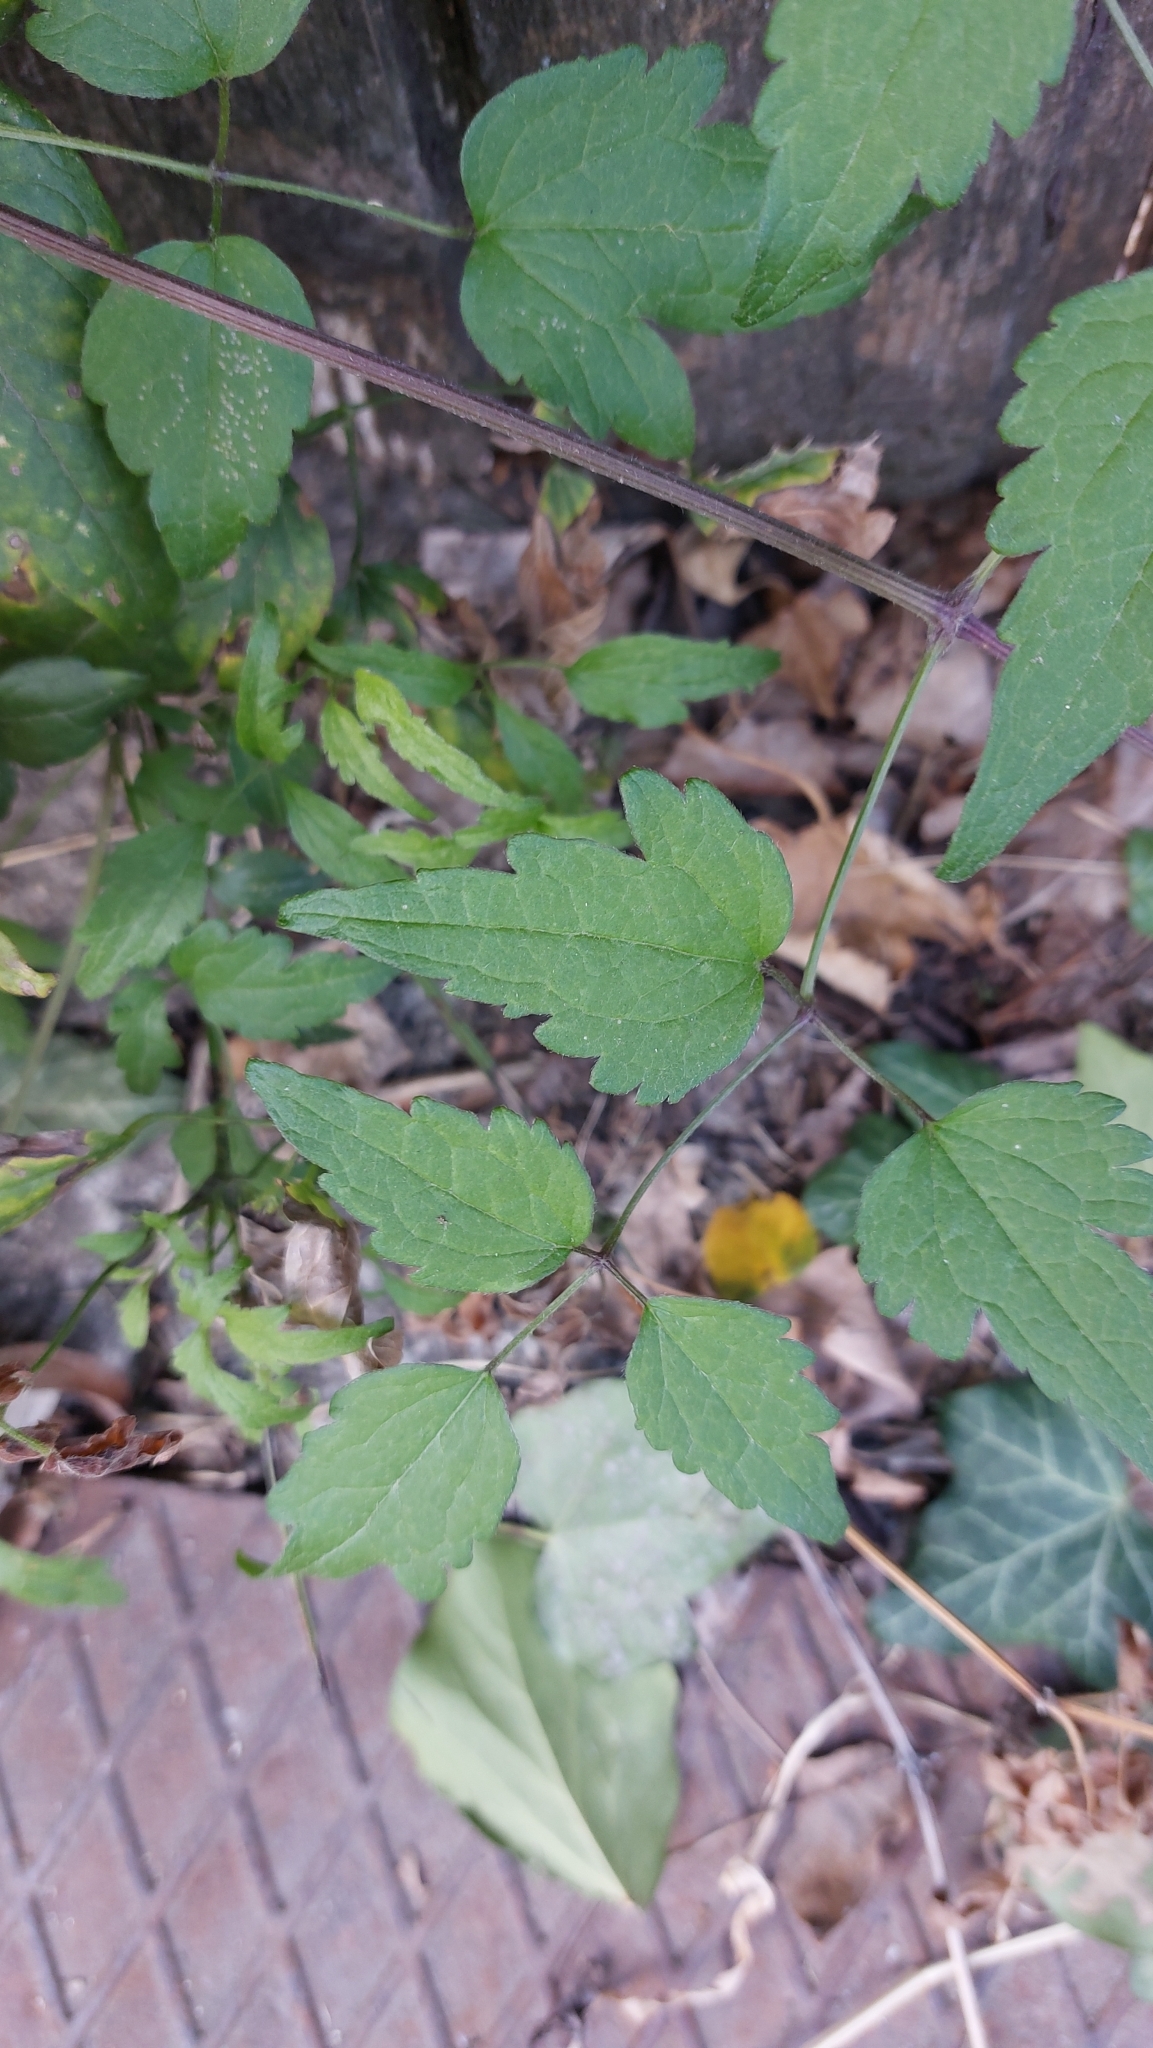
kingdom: Plantae
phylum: Tracheophyta
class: Magnoliopsida
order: Ranunculales
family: Ranunculaceae
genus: Clematis
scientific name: Clematis vitalba
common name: Evergreen clematis
